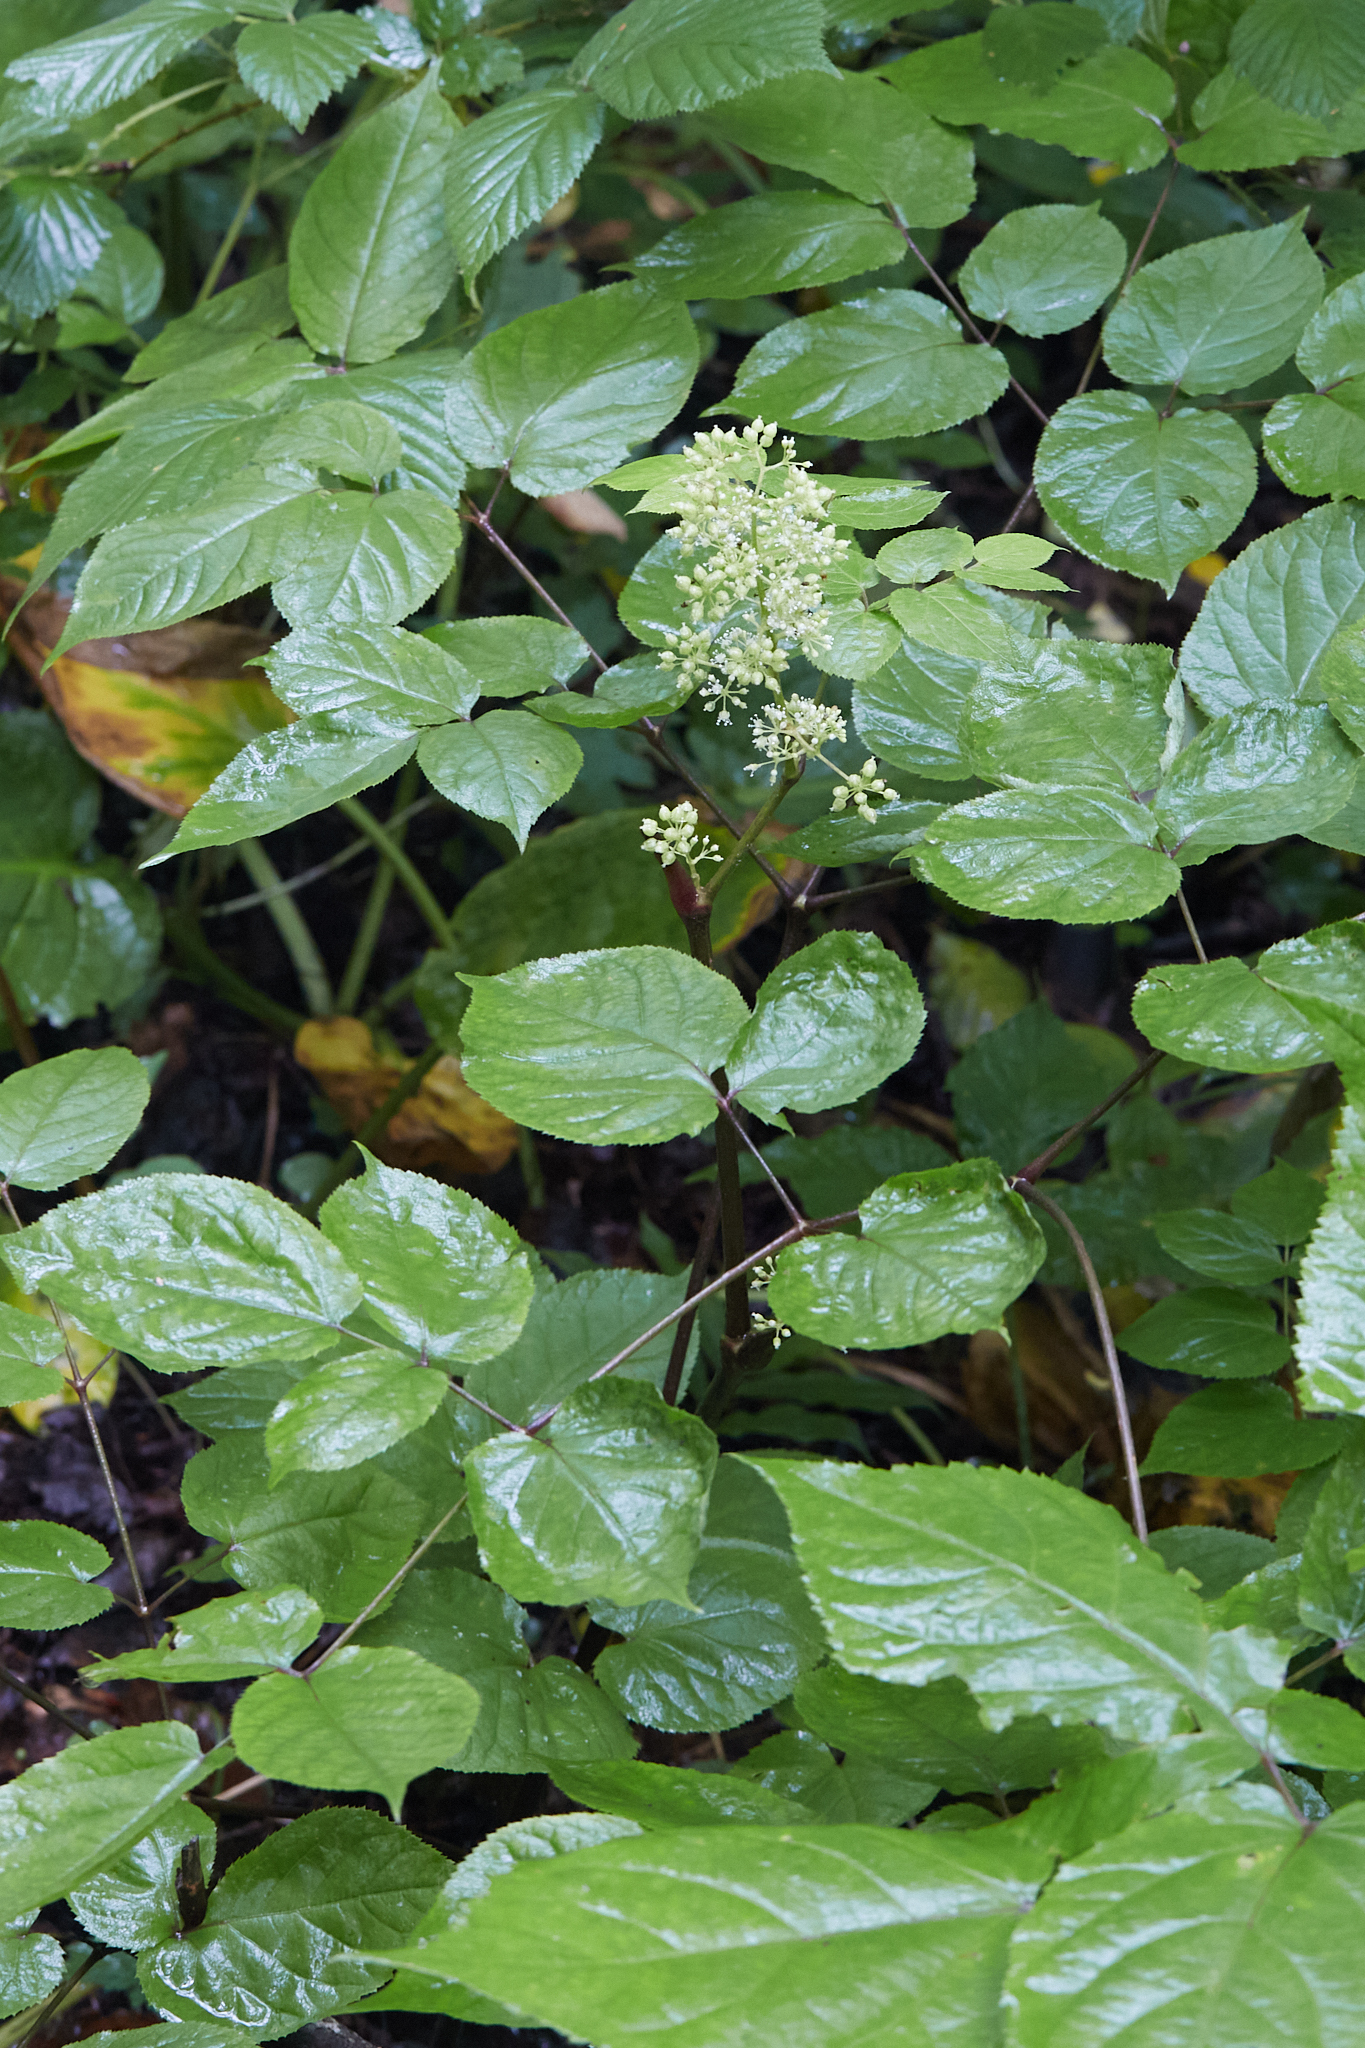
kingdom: Plantae
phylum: Tracheophyta
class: Magnoliopsida
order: Apiales
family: Araliaceae
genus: Aralia
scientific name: Aralia racemosa
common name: American-spikenard
